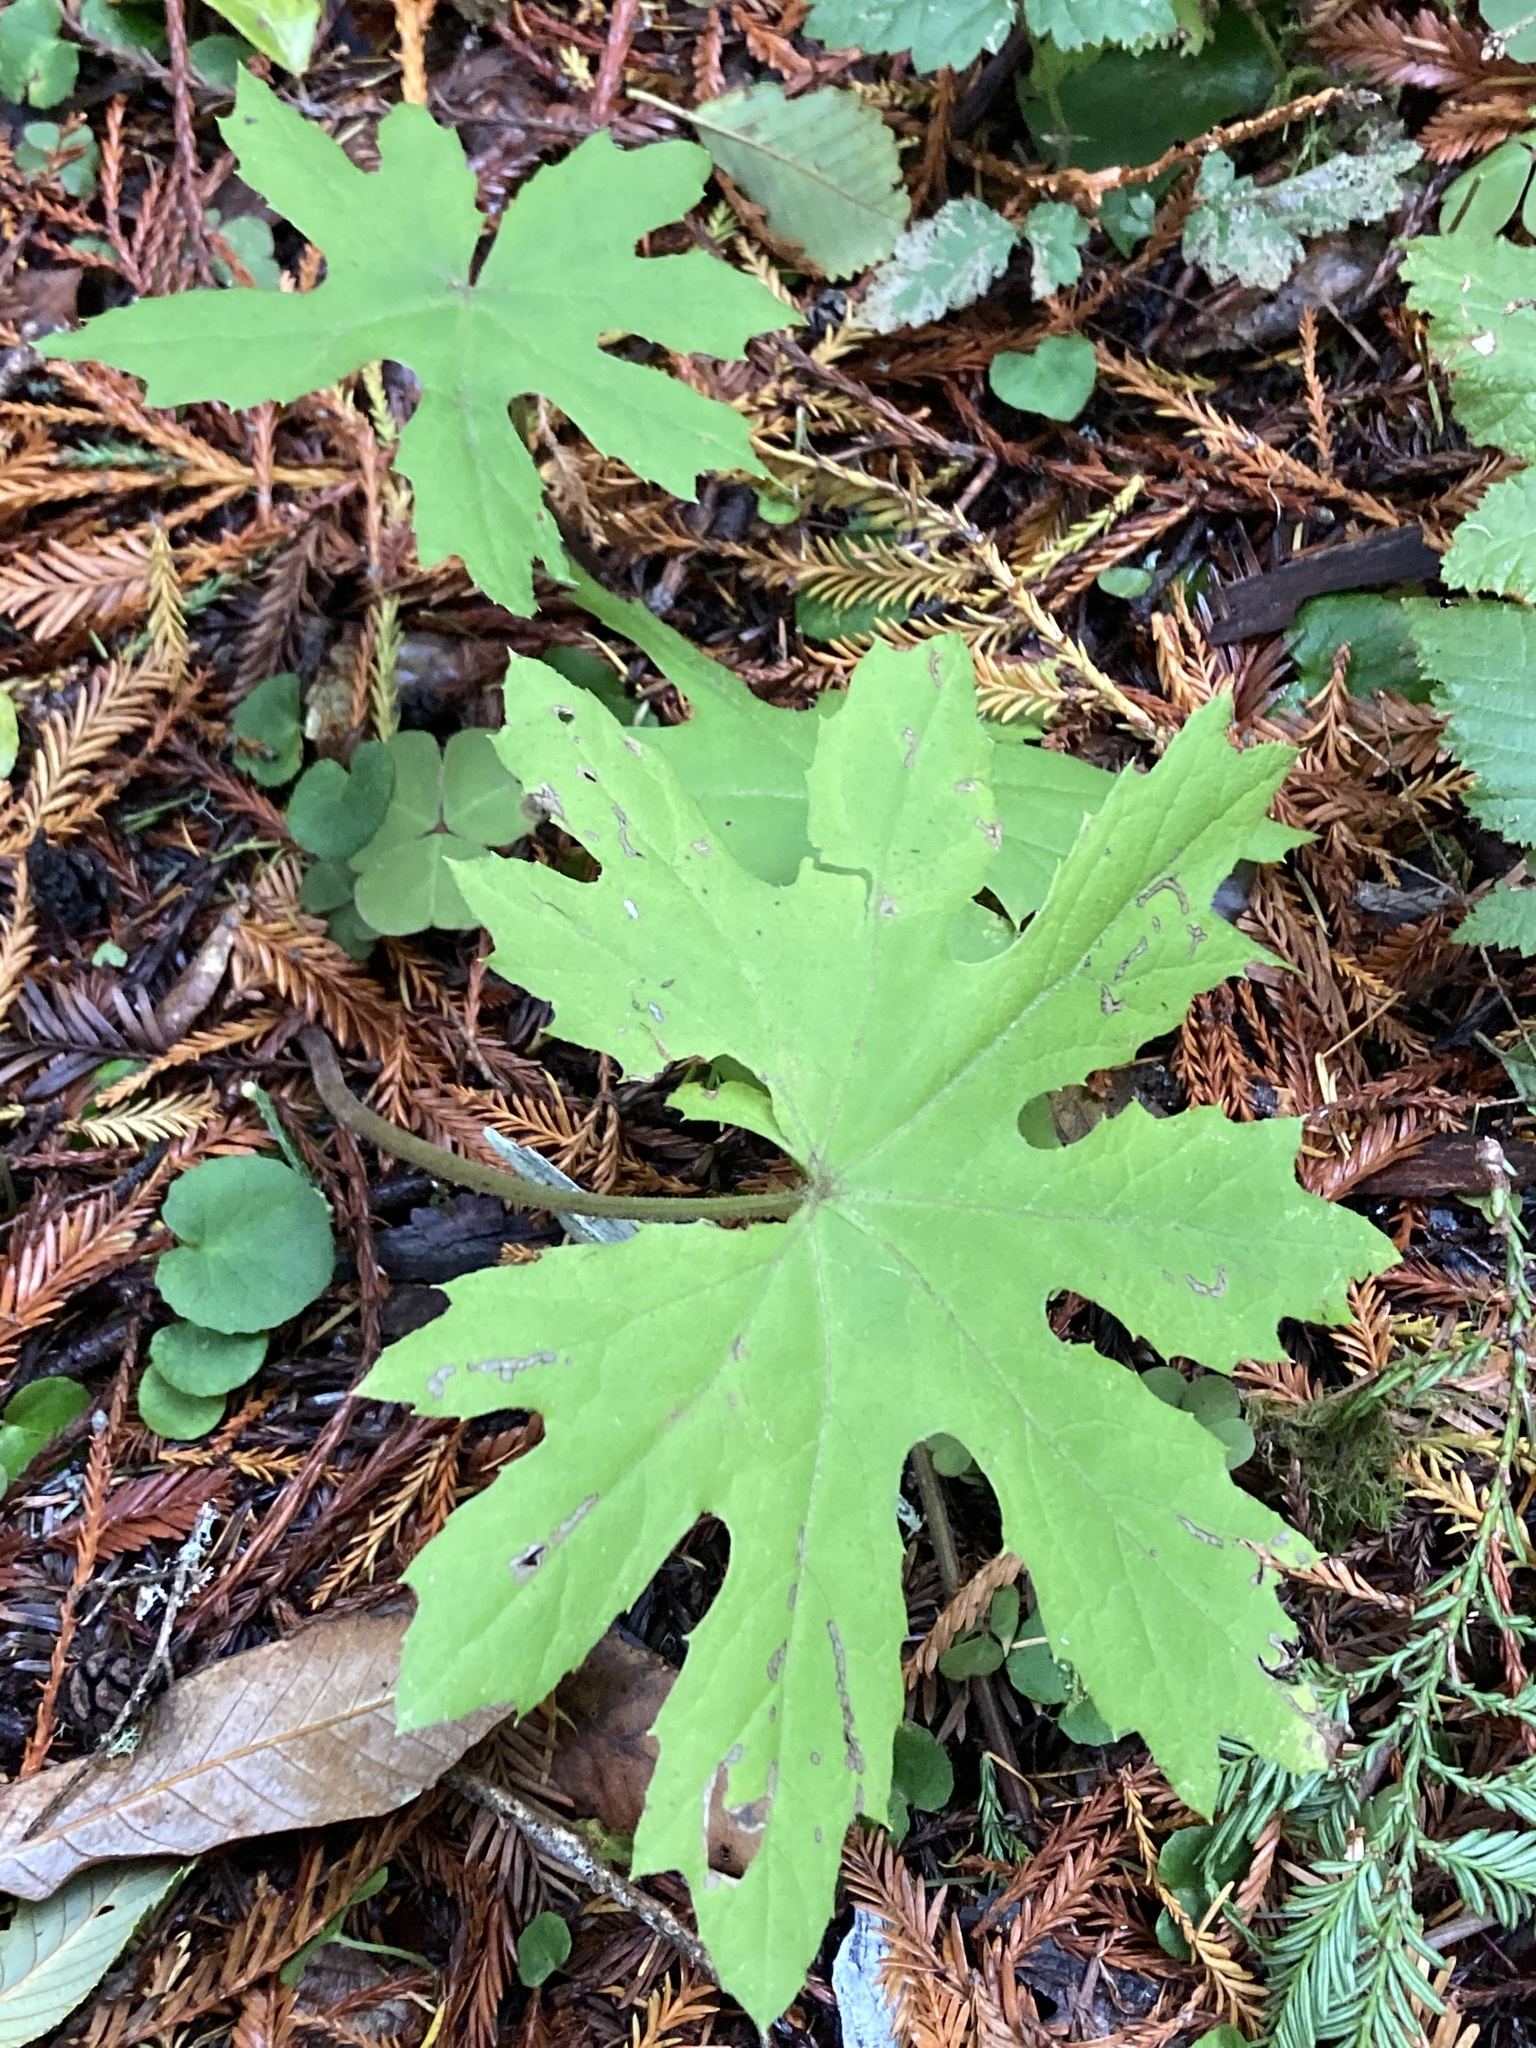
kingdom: Plantae
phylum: Tracheophyta
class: Magnoliopsida
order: Asterales
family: Asteraceae
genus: Petasites
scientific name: Petasites frigidus
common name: Arctic butterbur
